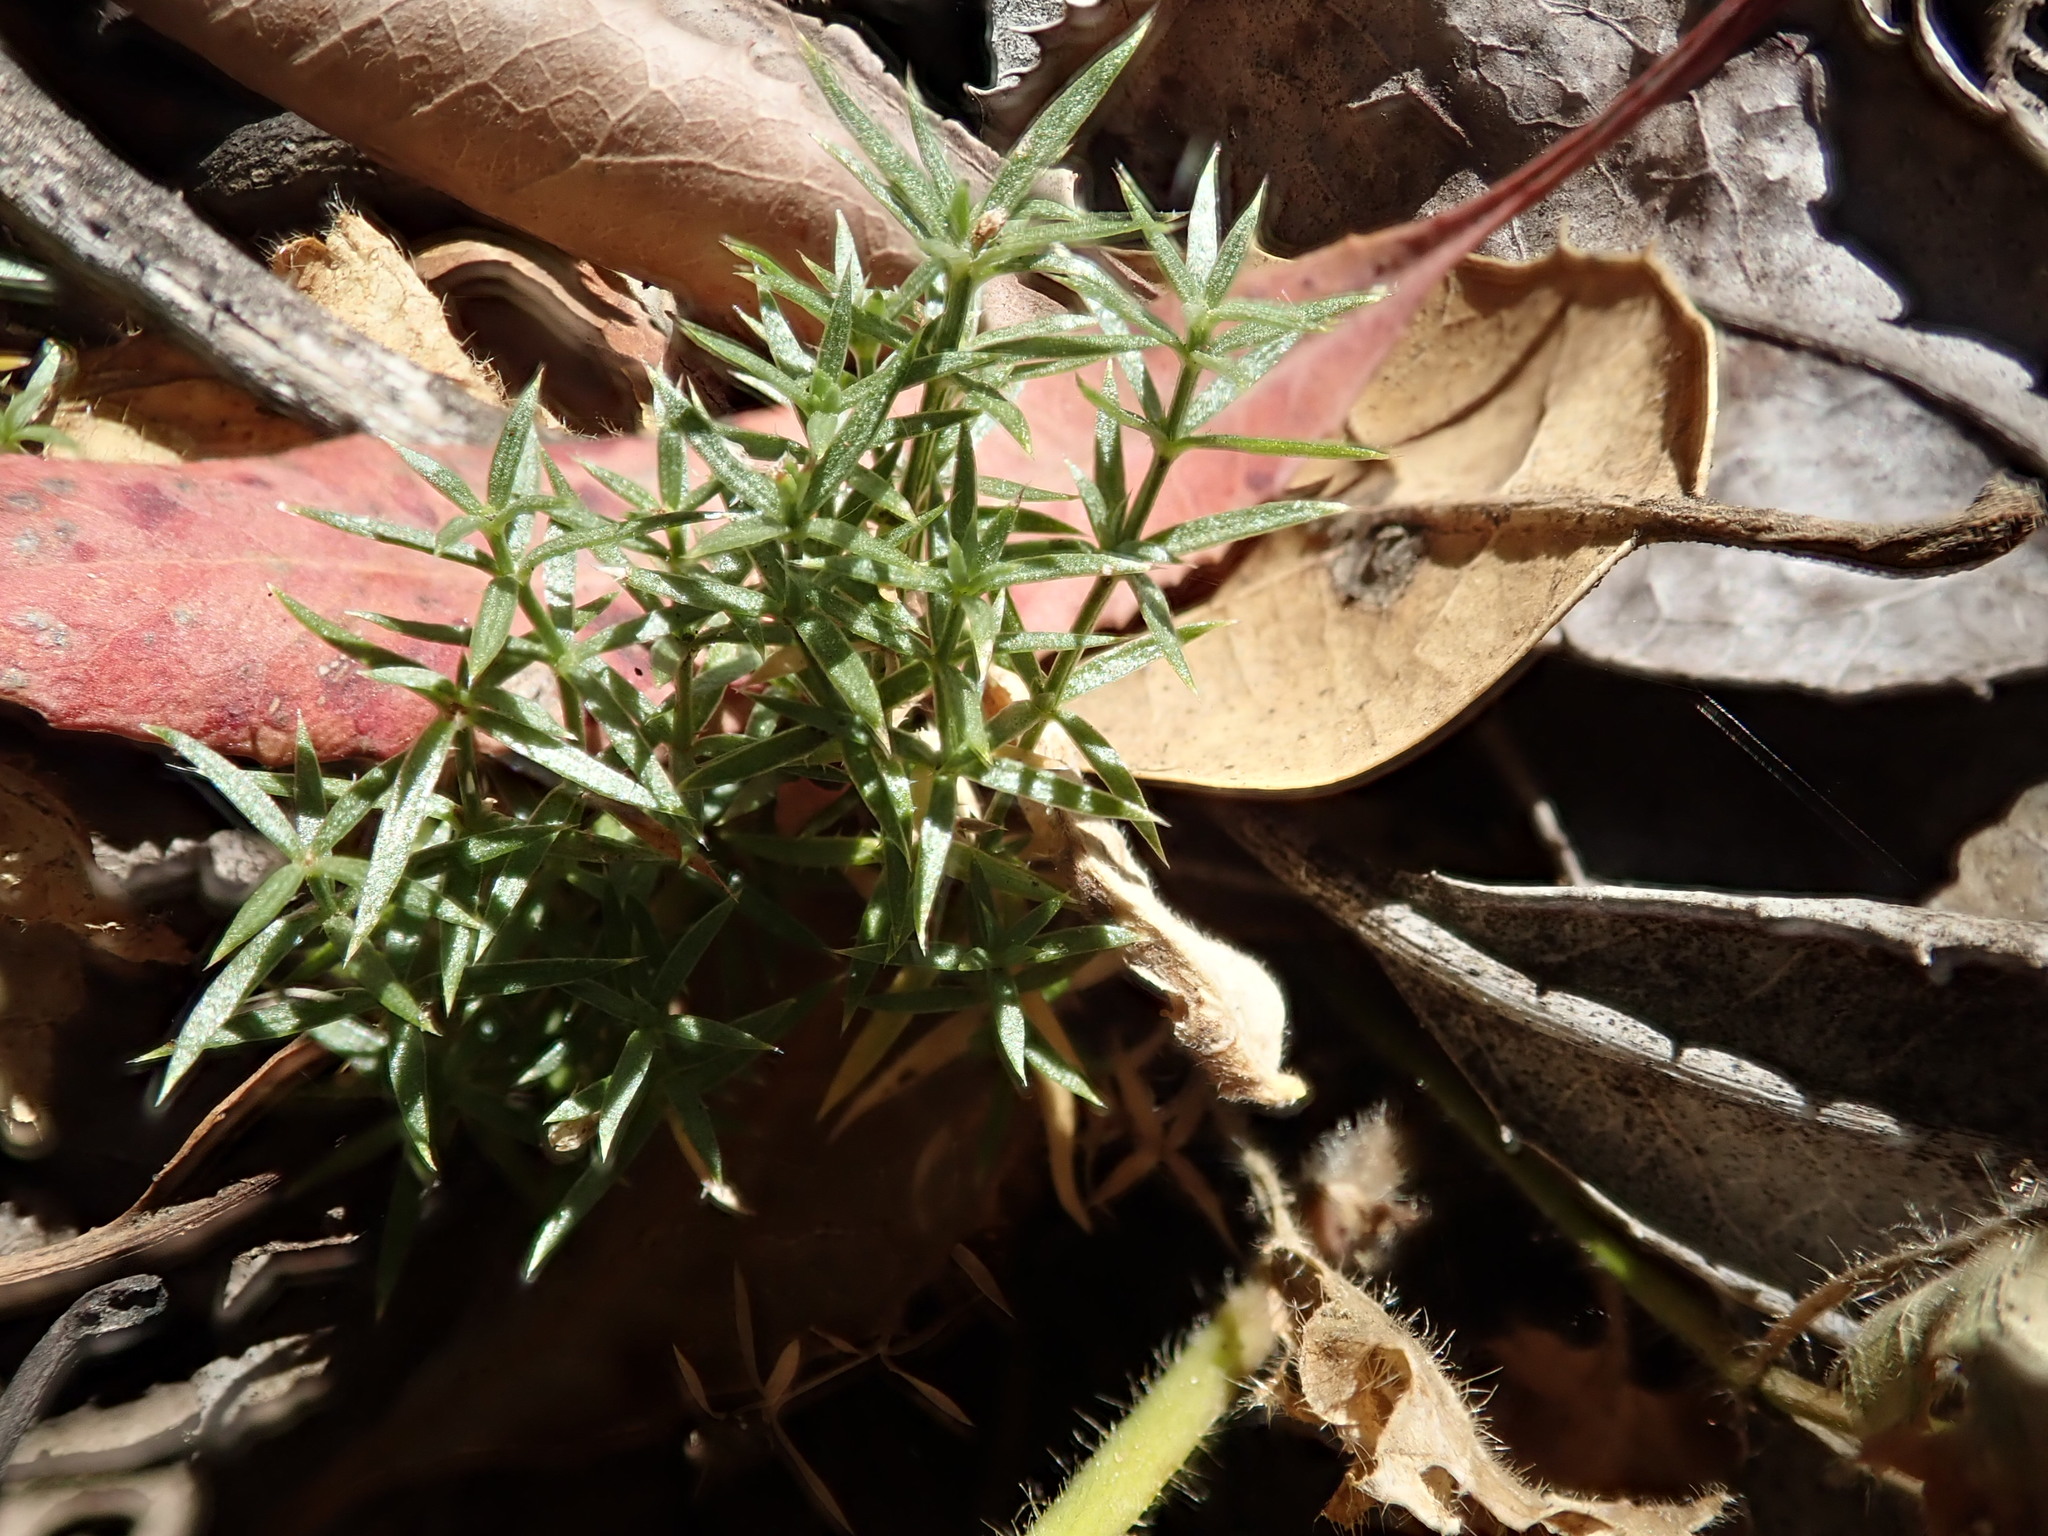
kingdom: Plantae
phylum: Tracheophyta
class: Magnoliopsida
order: Gentianales
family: Rubiaceae
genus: Galium
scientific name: Galium andrewsii
